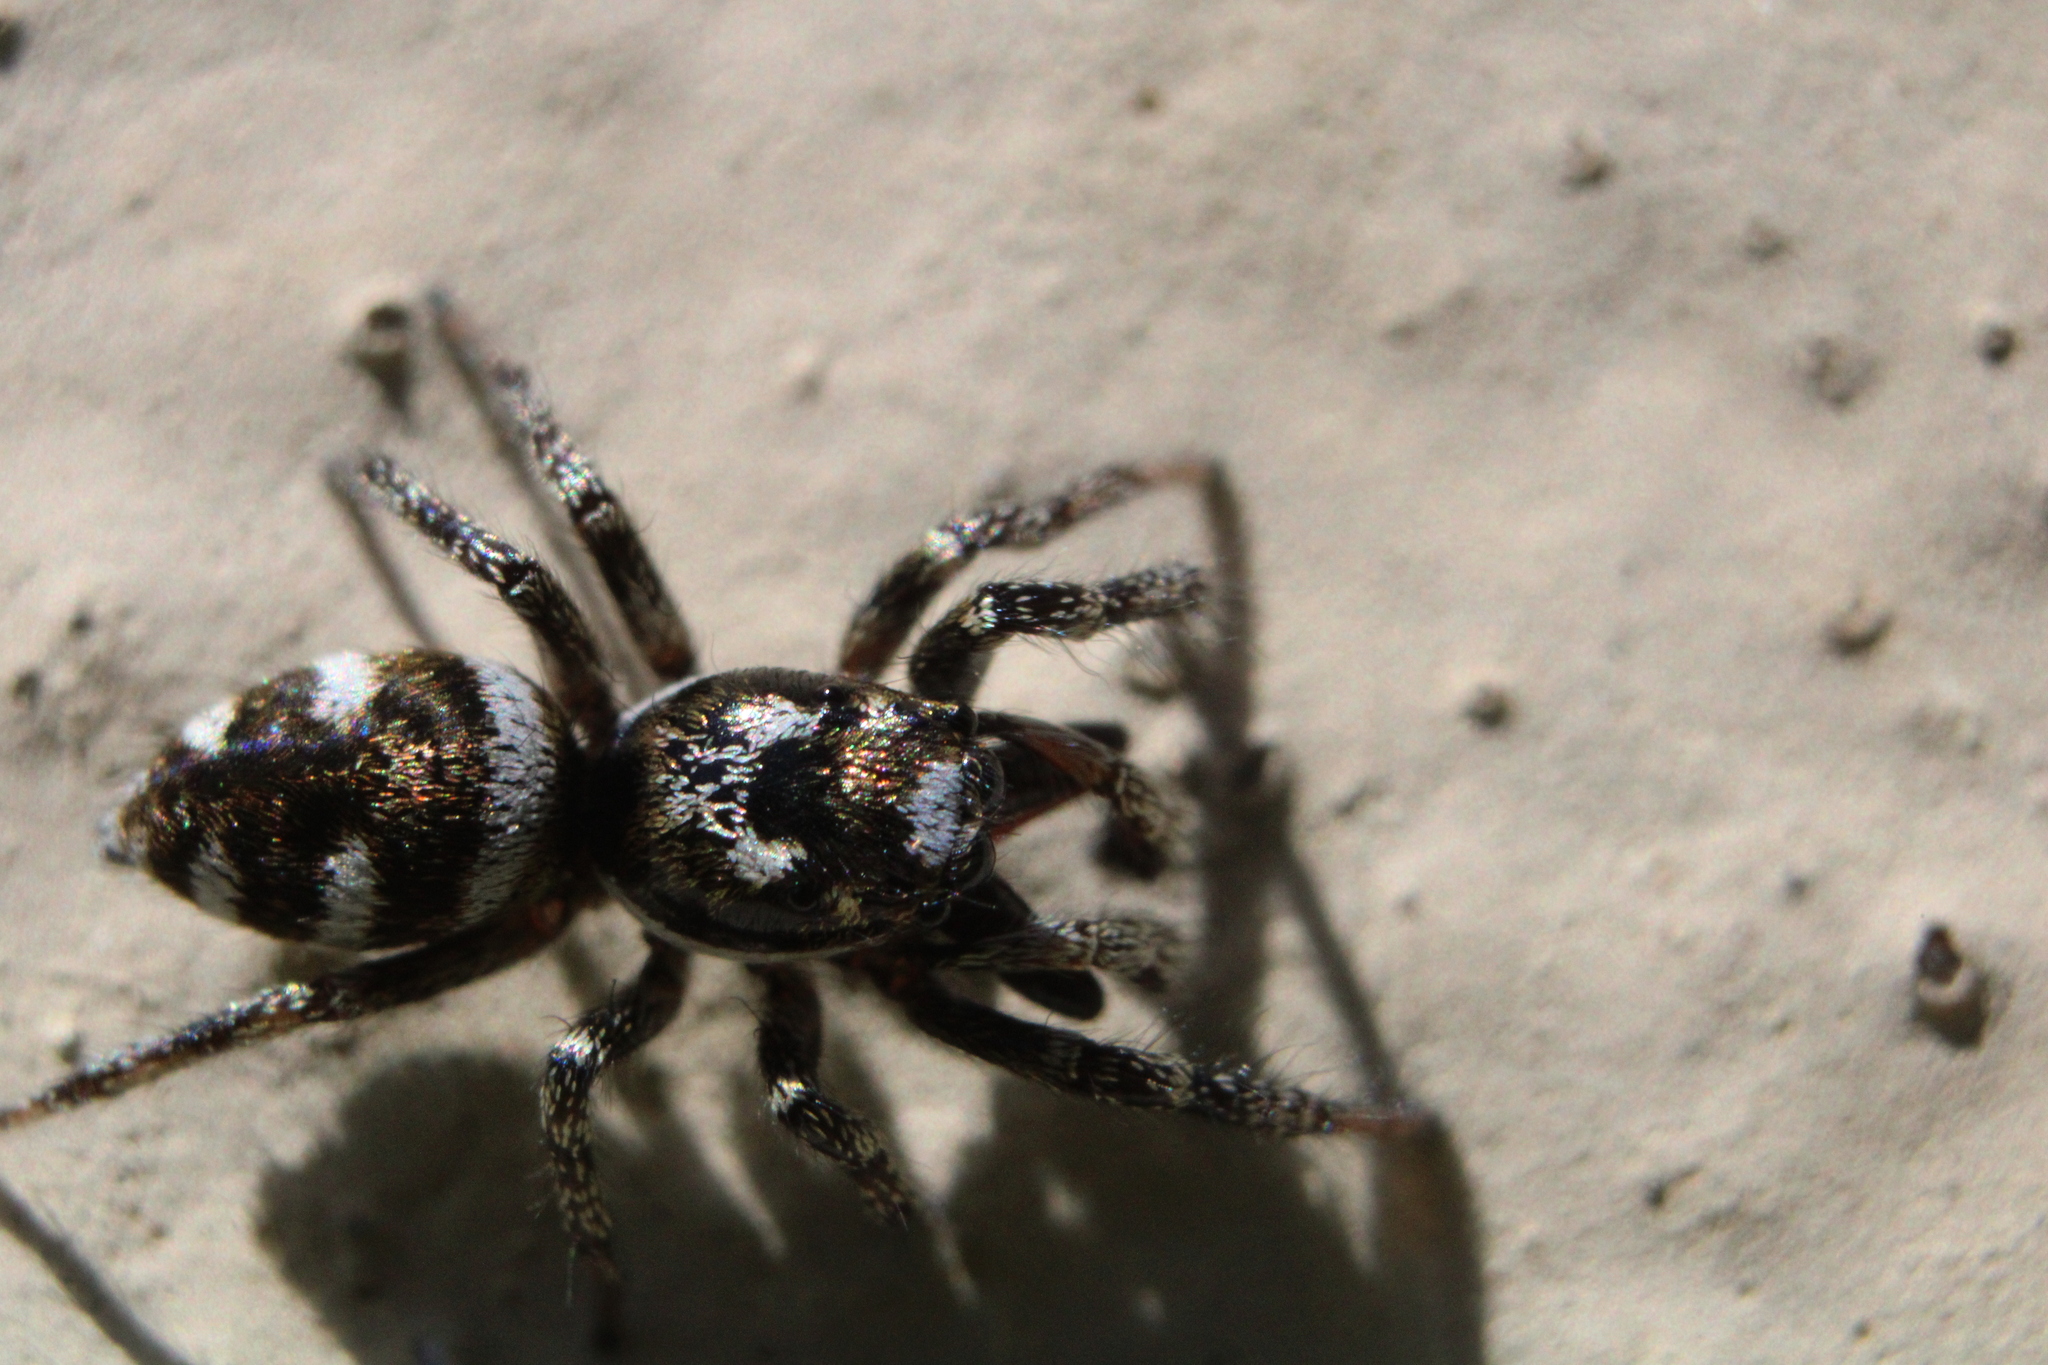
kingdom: Animalia
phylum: Arthropoda
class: Arachnida
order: Araneae
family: Salticidae
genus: Salticus
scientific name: Salticus scenicus
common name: Zebra jumper
